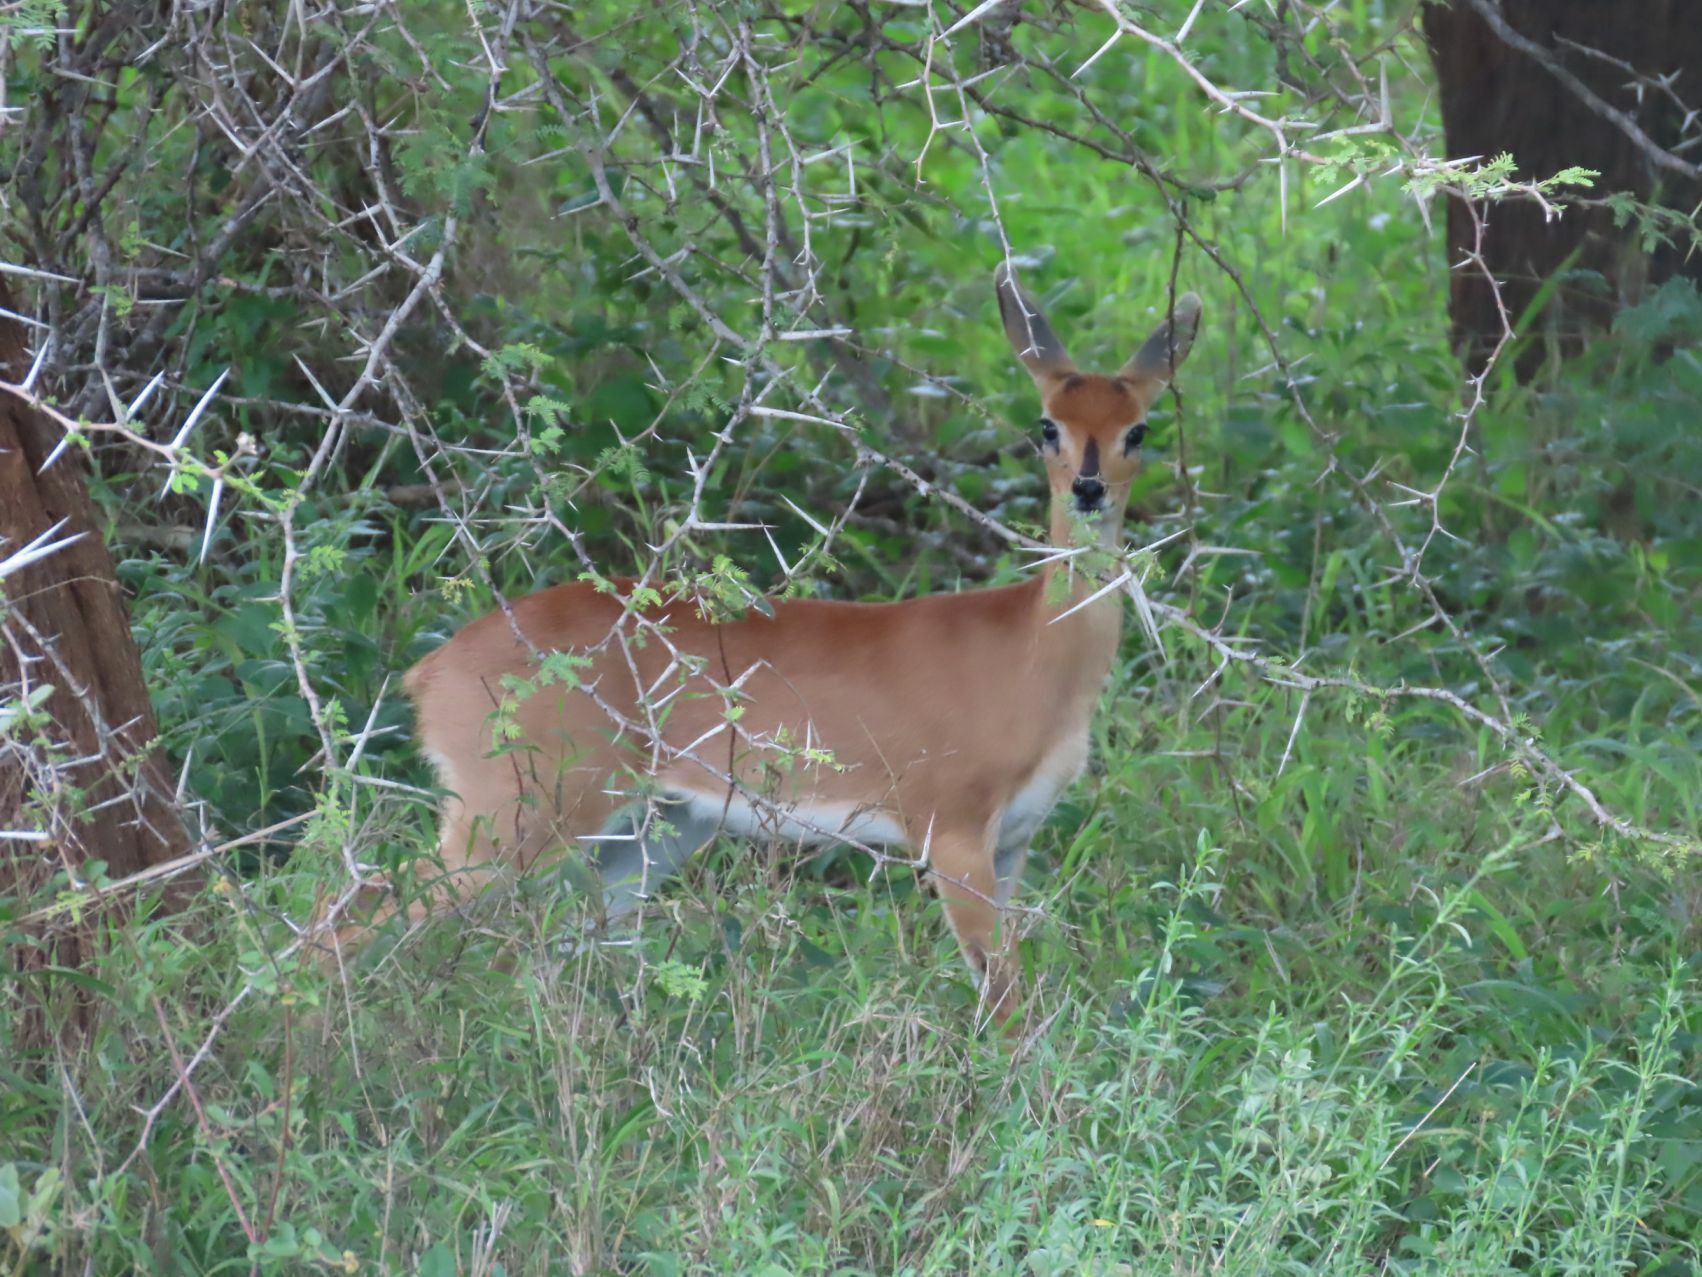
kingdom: Animalia
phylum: Chordata
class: Mammalia
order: Artiodactyla
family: Bovidae
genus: Raphicerus
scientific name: Raphicerus campestris
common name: Steenbok
